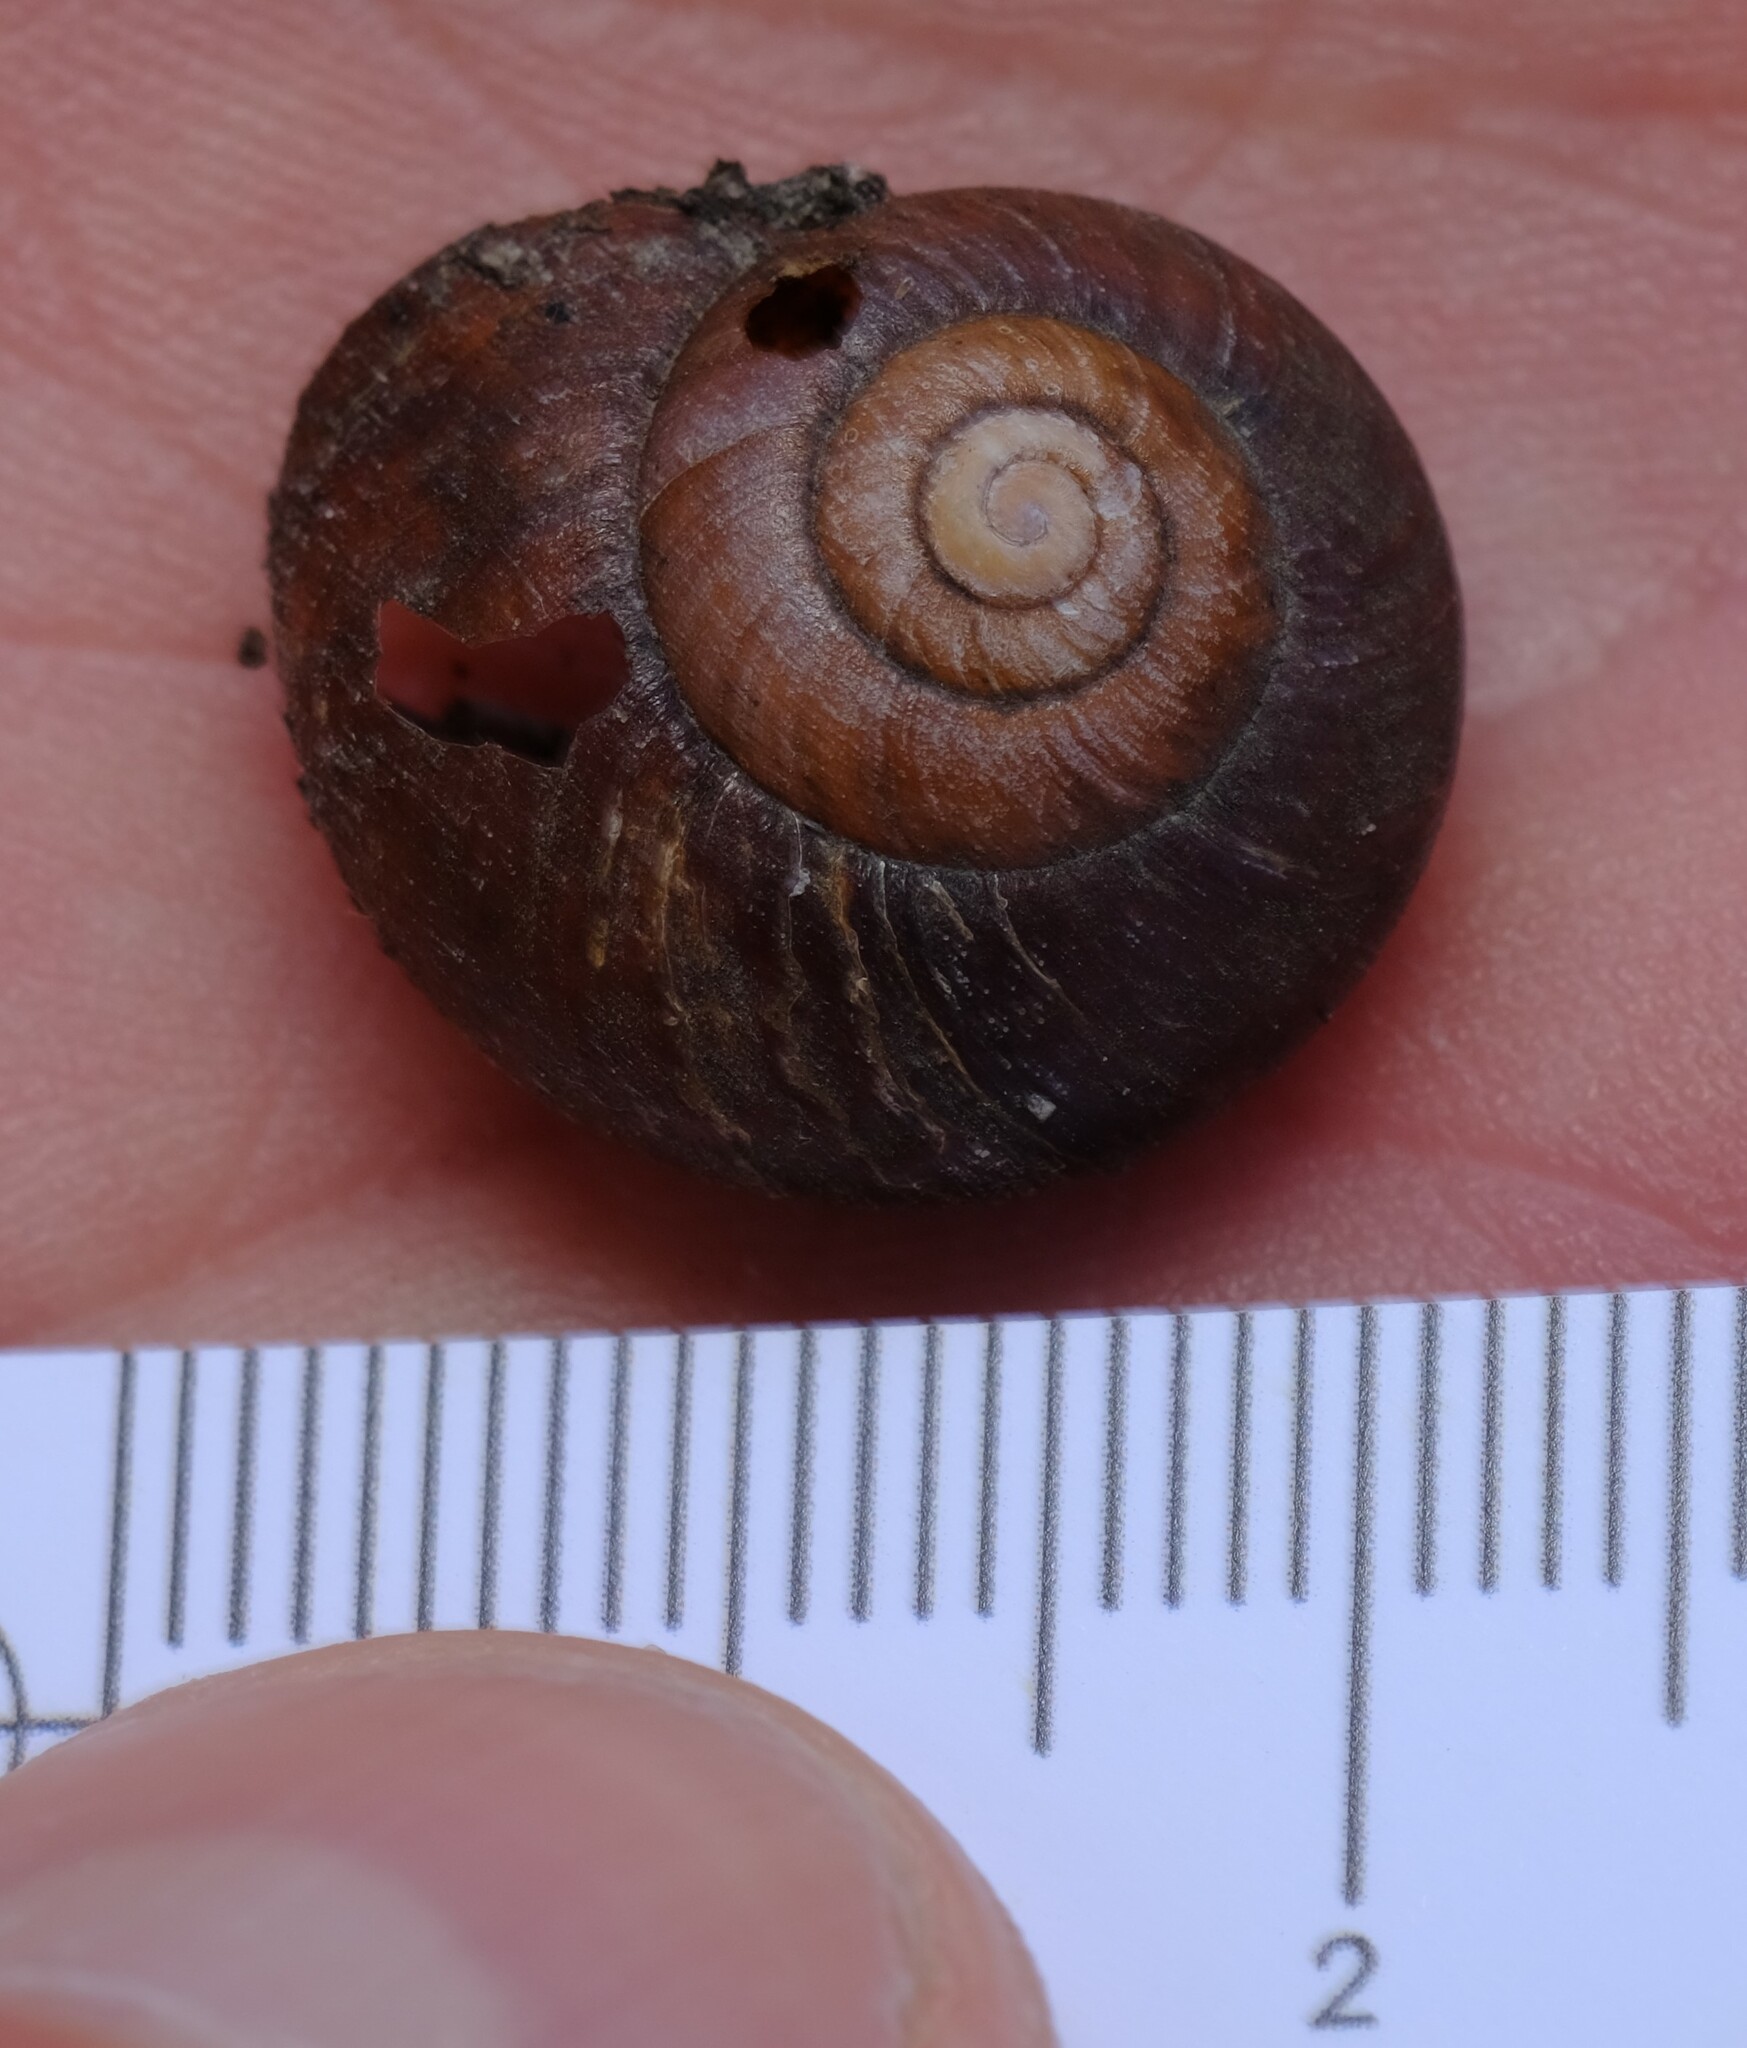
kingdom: Animalia
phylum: Mollusca
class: Gastropoda
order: Stylommatophora
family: Camaenidae
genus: Chloritobadistes
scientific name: Chloritobadistes victoriae
